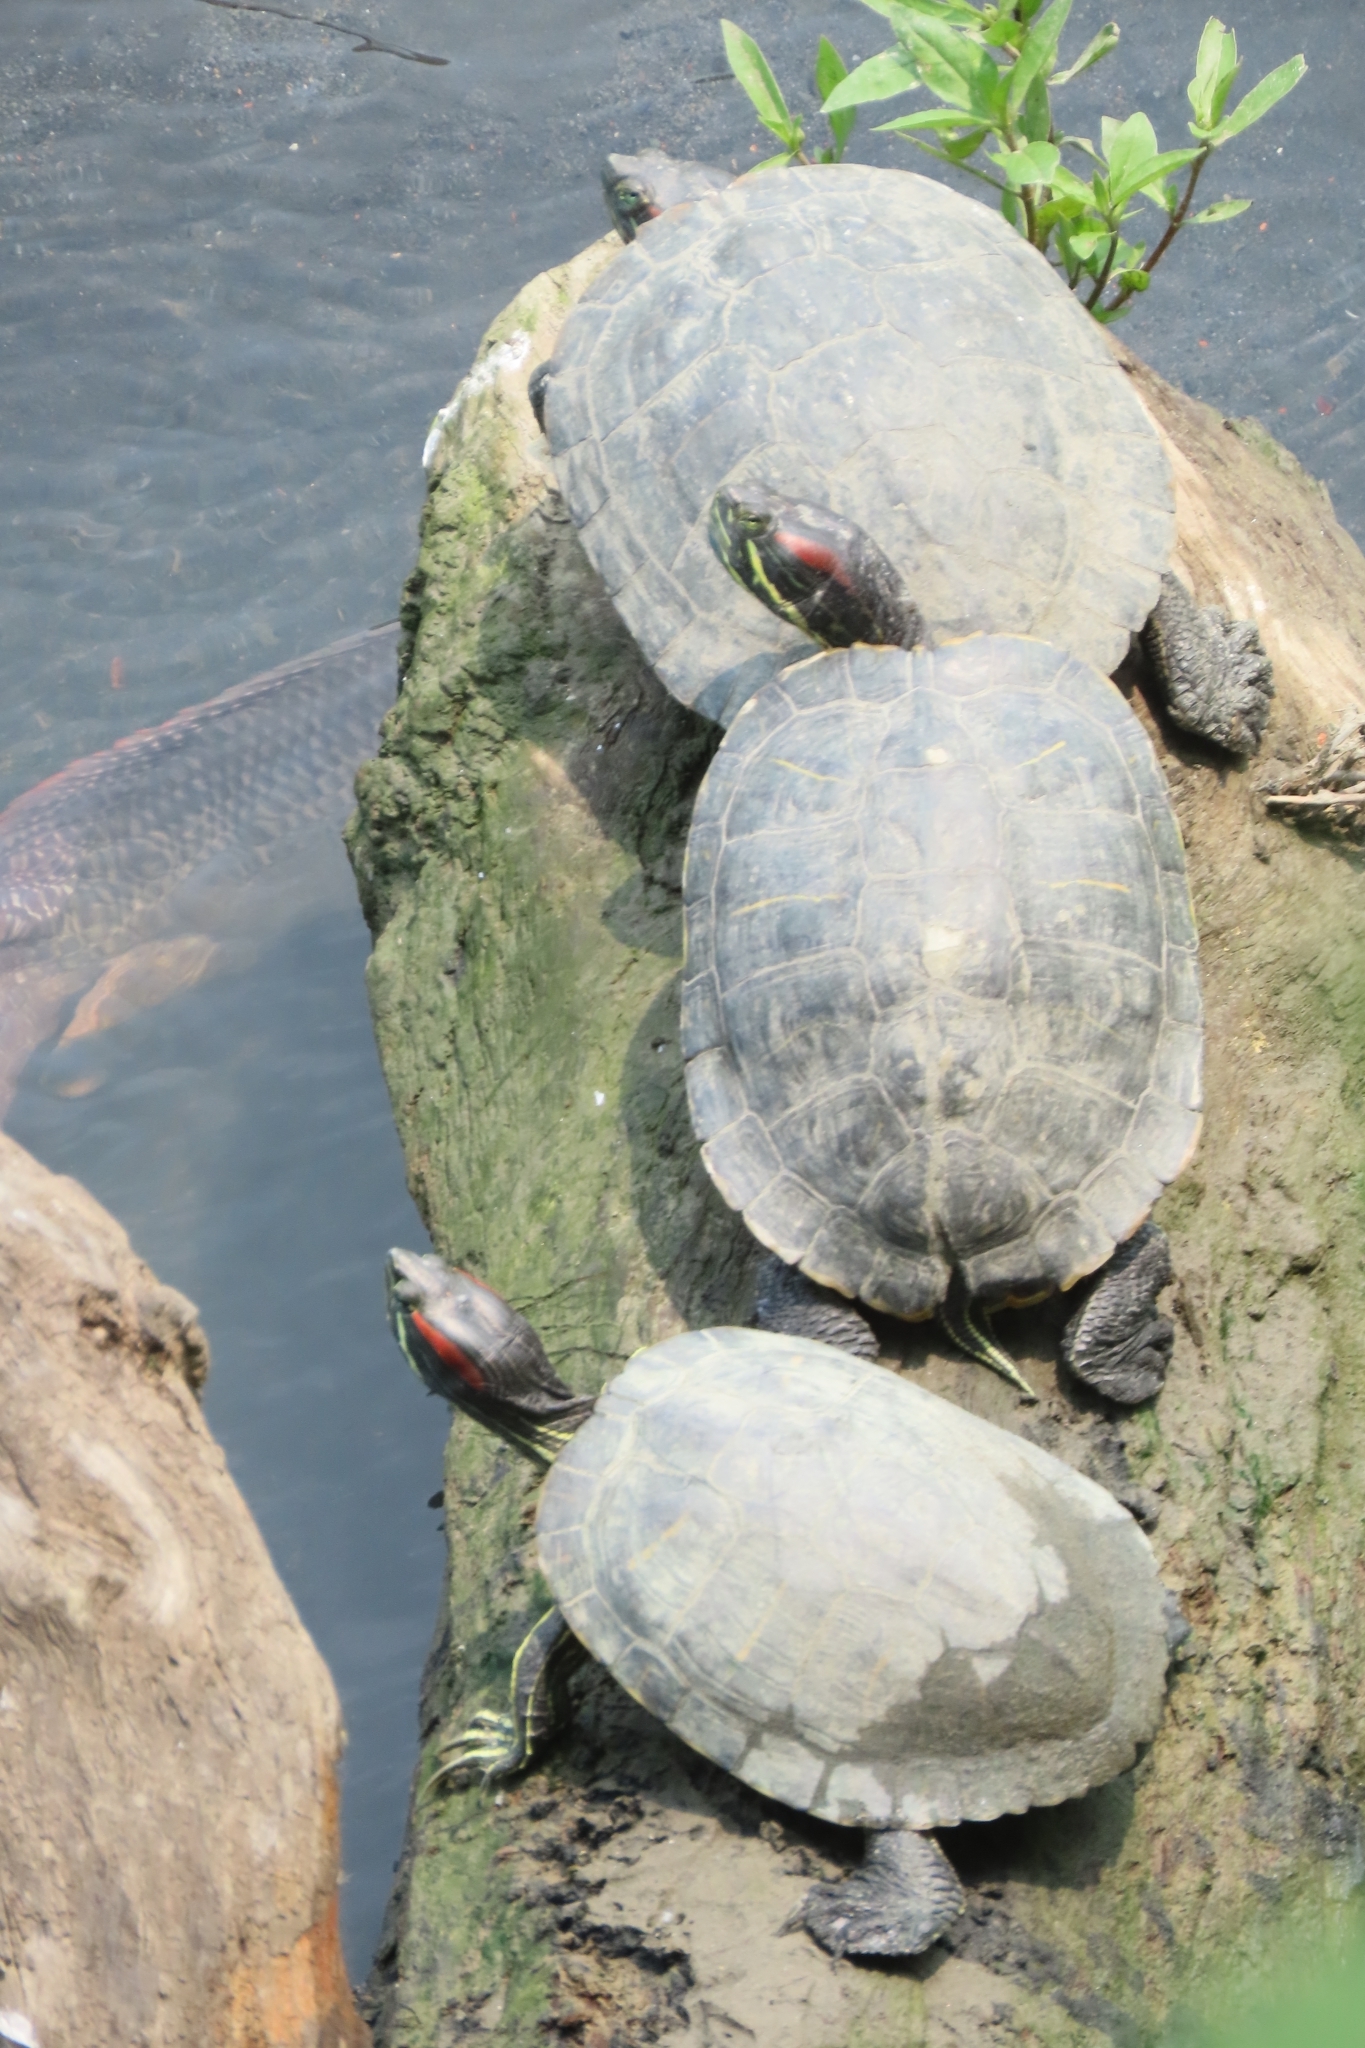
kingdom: Animalia
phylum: Chordata
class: Testudines
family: Emydidae
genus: Trachemys
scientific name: Trachemys scripta
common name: Slider
